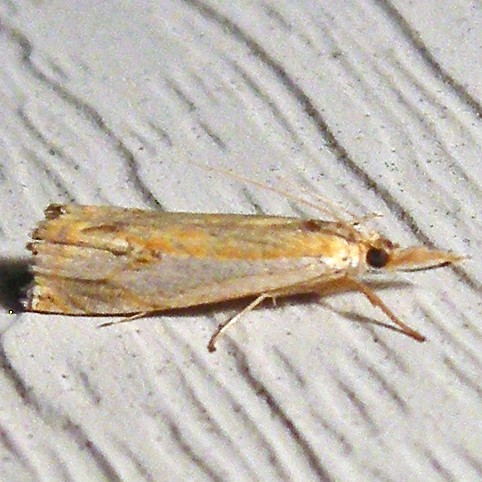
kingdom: Animalia
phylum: Arthropoda
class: Insecta
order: Lepidoptera
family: Crambidae
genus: Crambus
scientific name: Crambus agitatellus
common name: Double-banded grass-veneer
